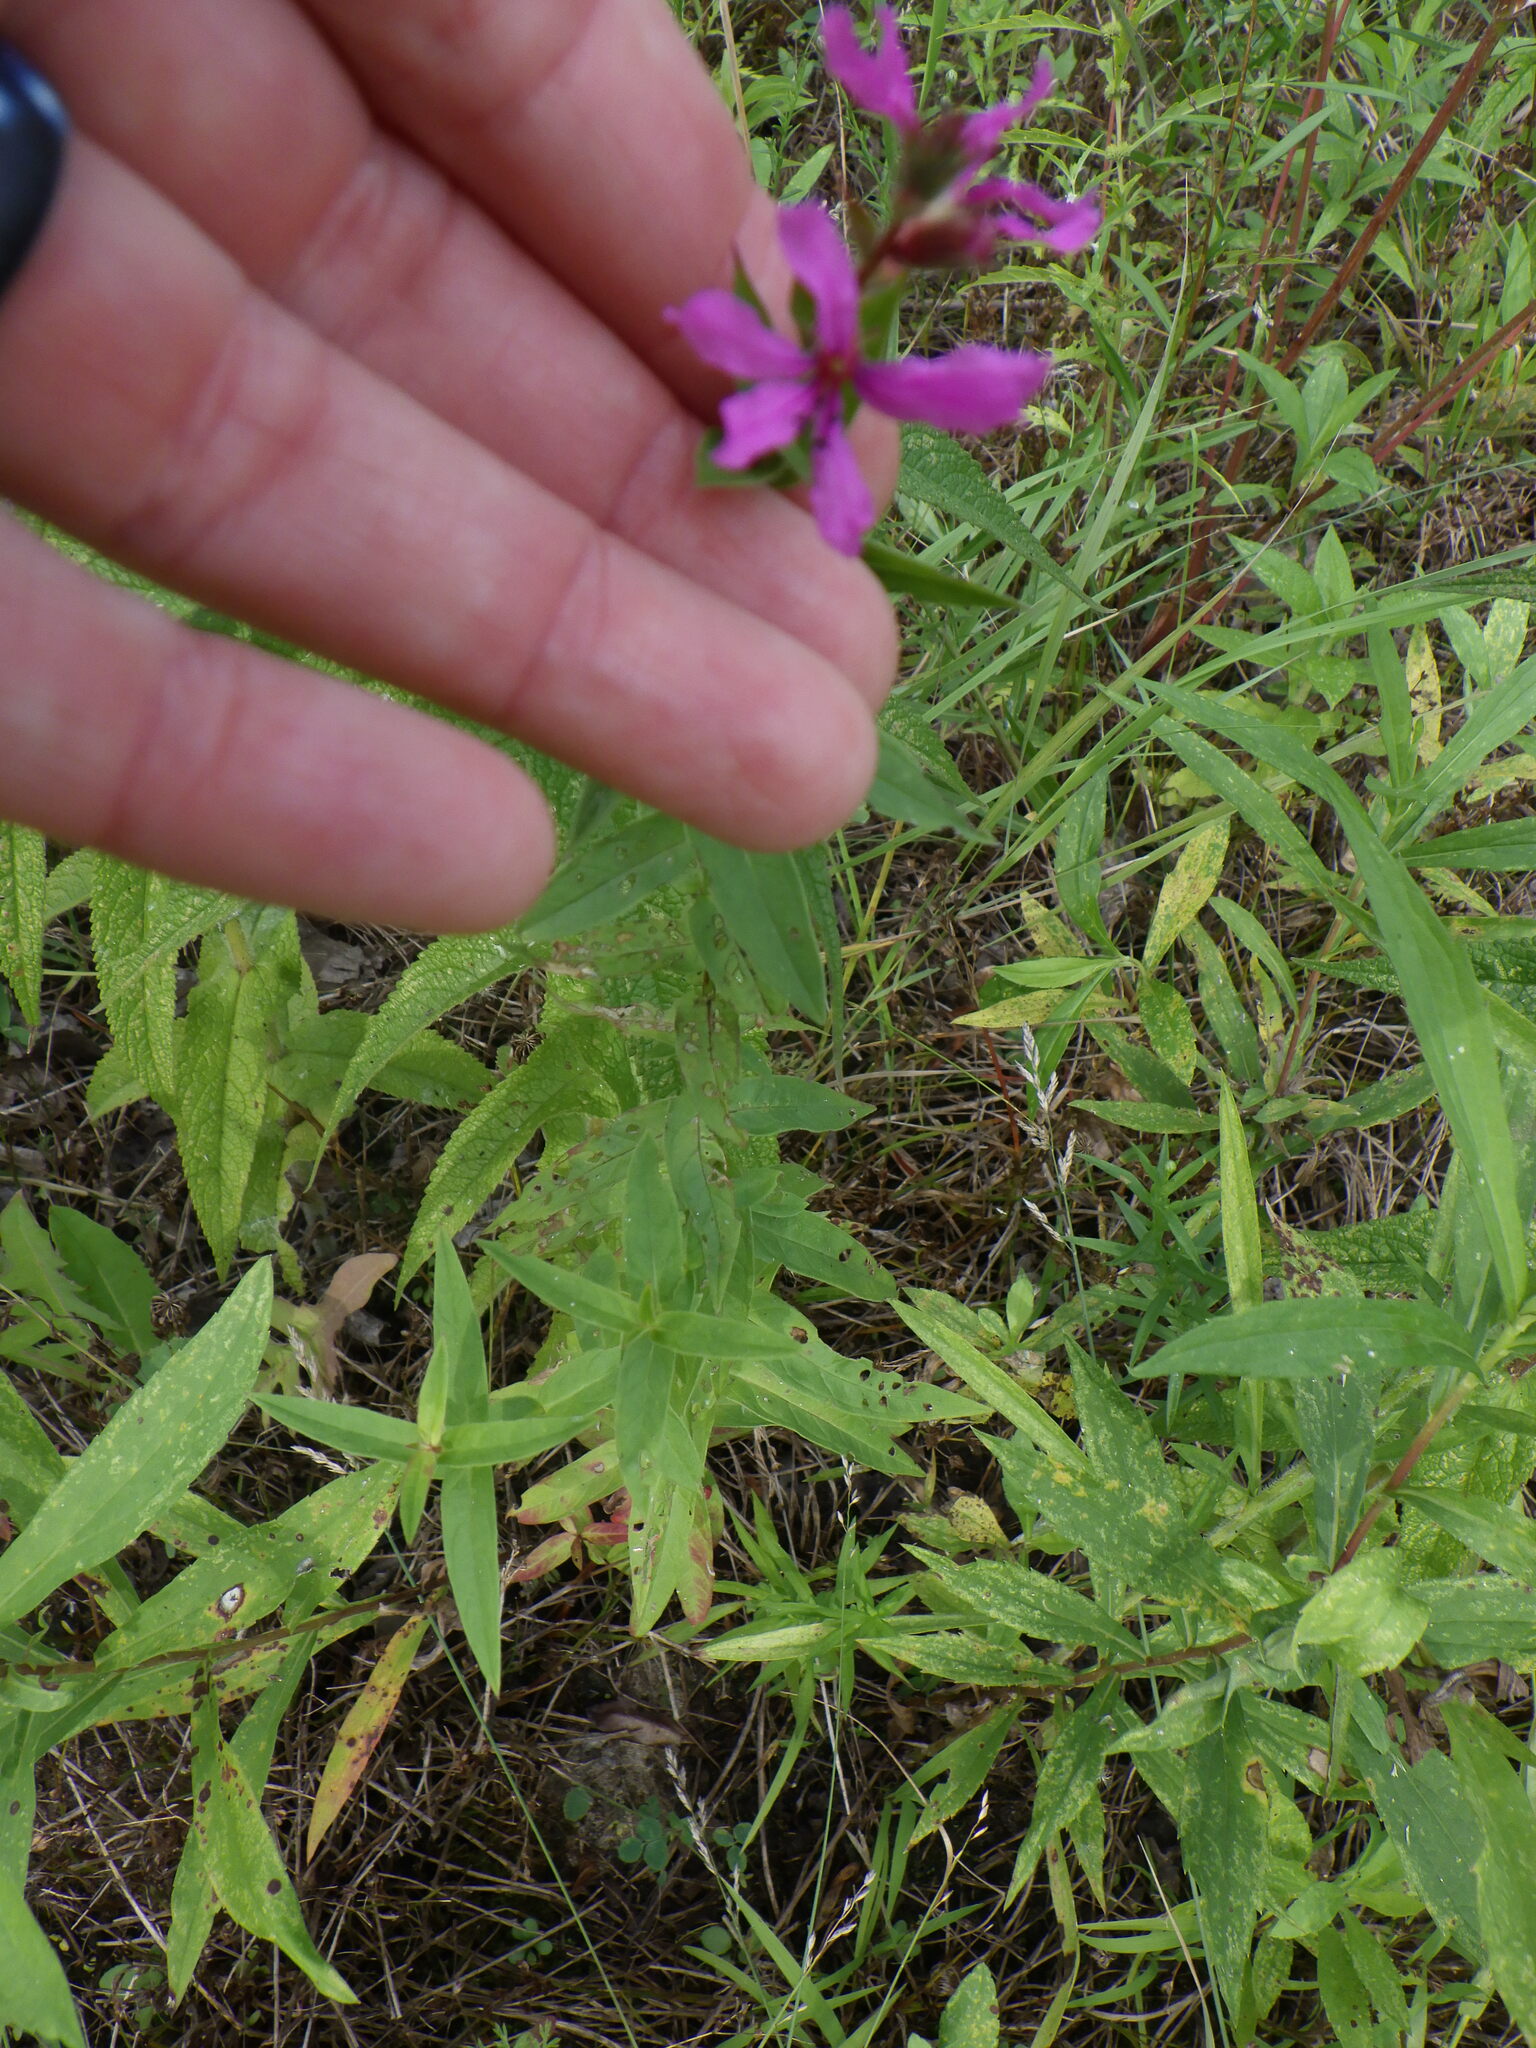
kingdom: Plantae
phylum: Tracheophyta
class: Magnoliopsida
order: Myrtales
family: Lythraceae
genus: Lythrum
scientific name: Lythrum salicaria
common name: Purple loosestrife
